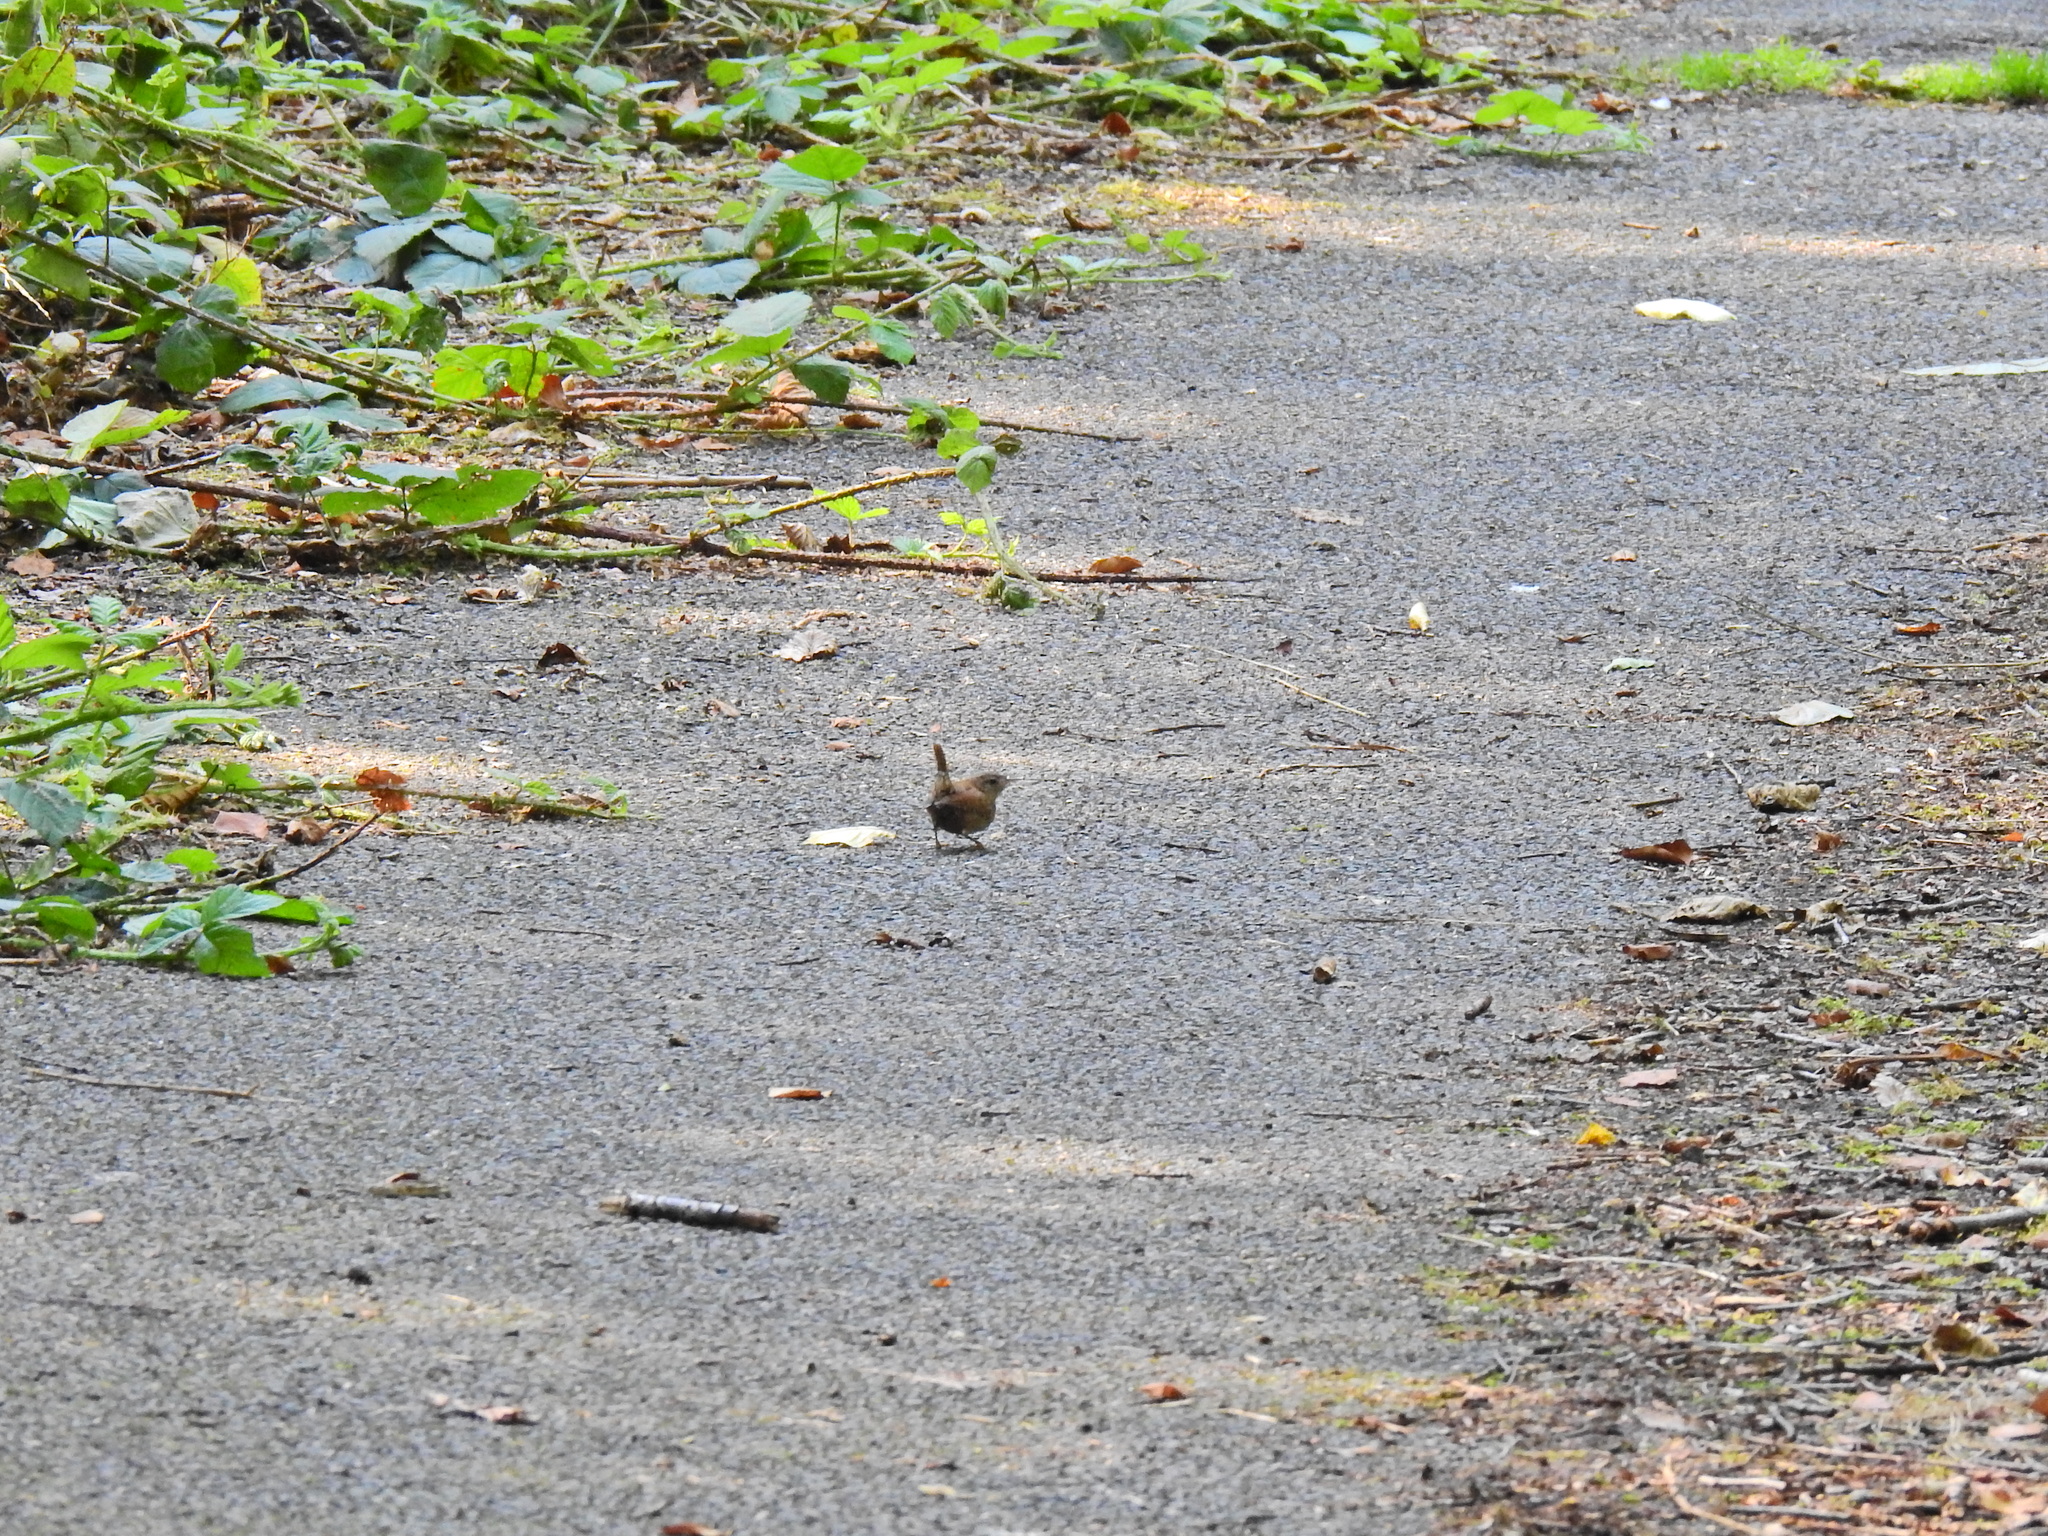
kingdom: Animalia
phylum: Chordata
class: Aves
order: Passeriformes
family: Troglodytidae
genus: Troglodytes
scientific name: Troglodytes troglodytes
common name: Eurasian wren
